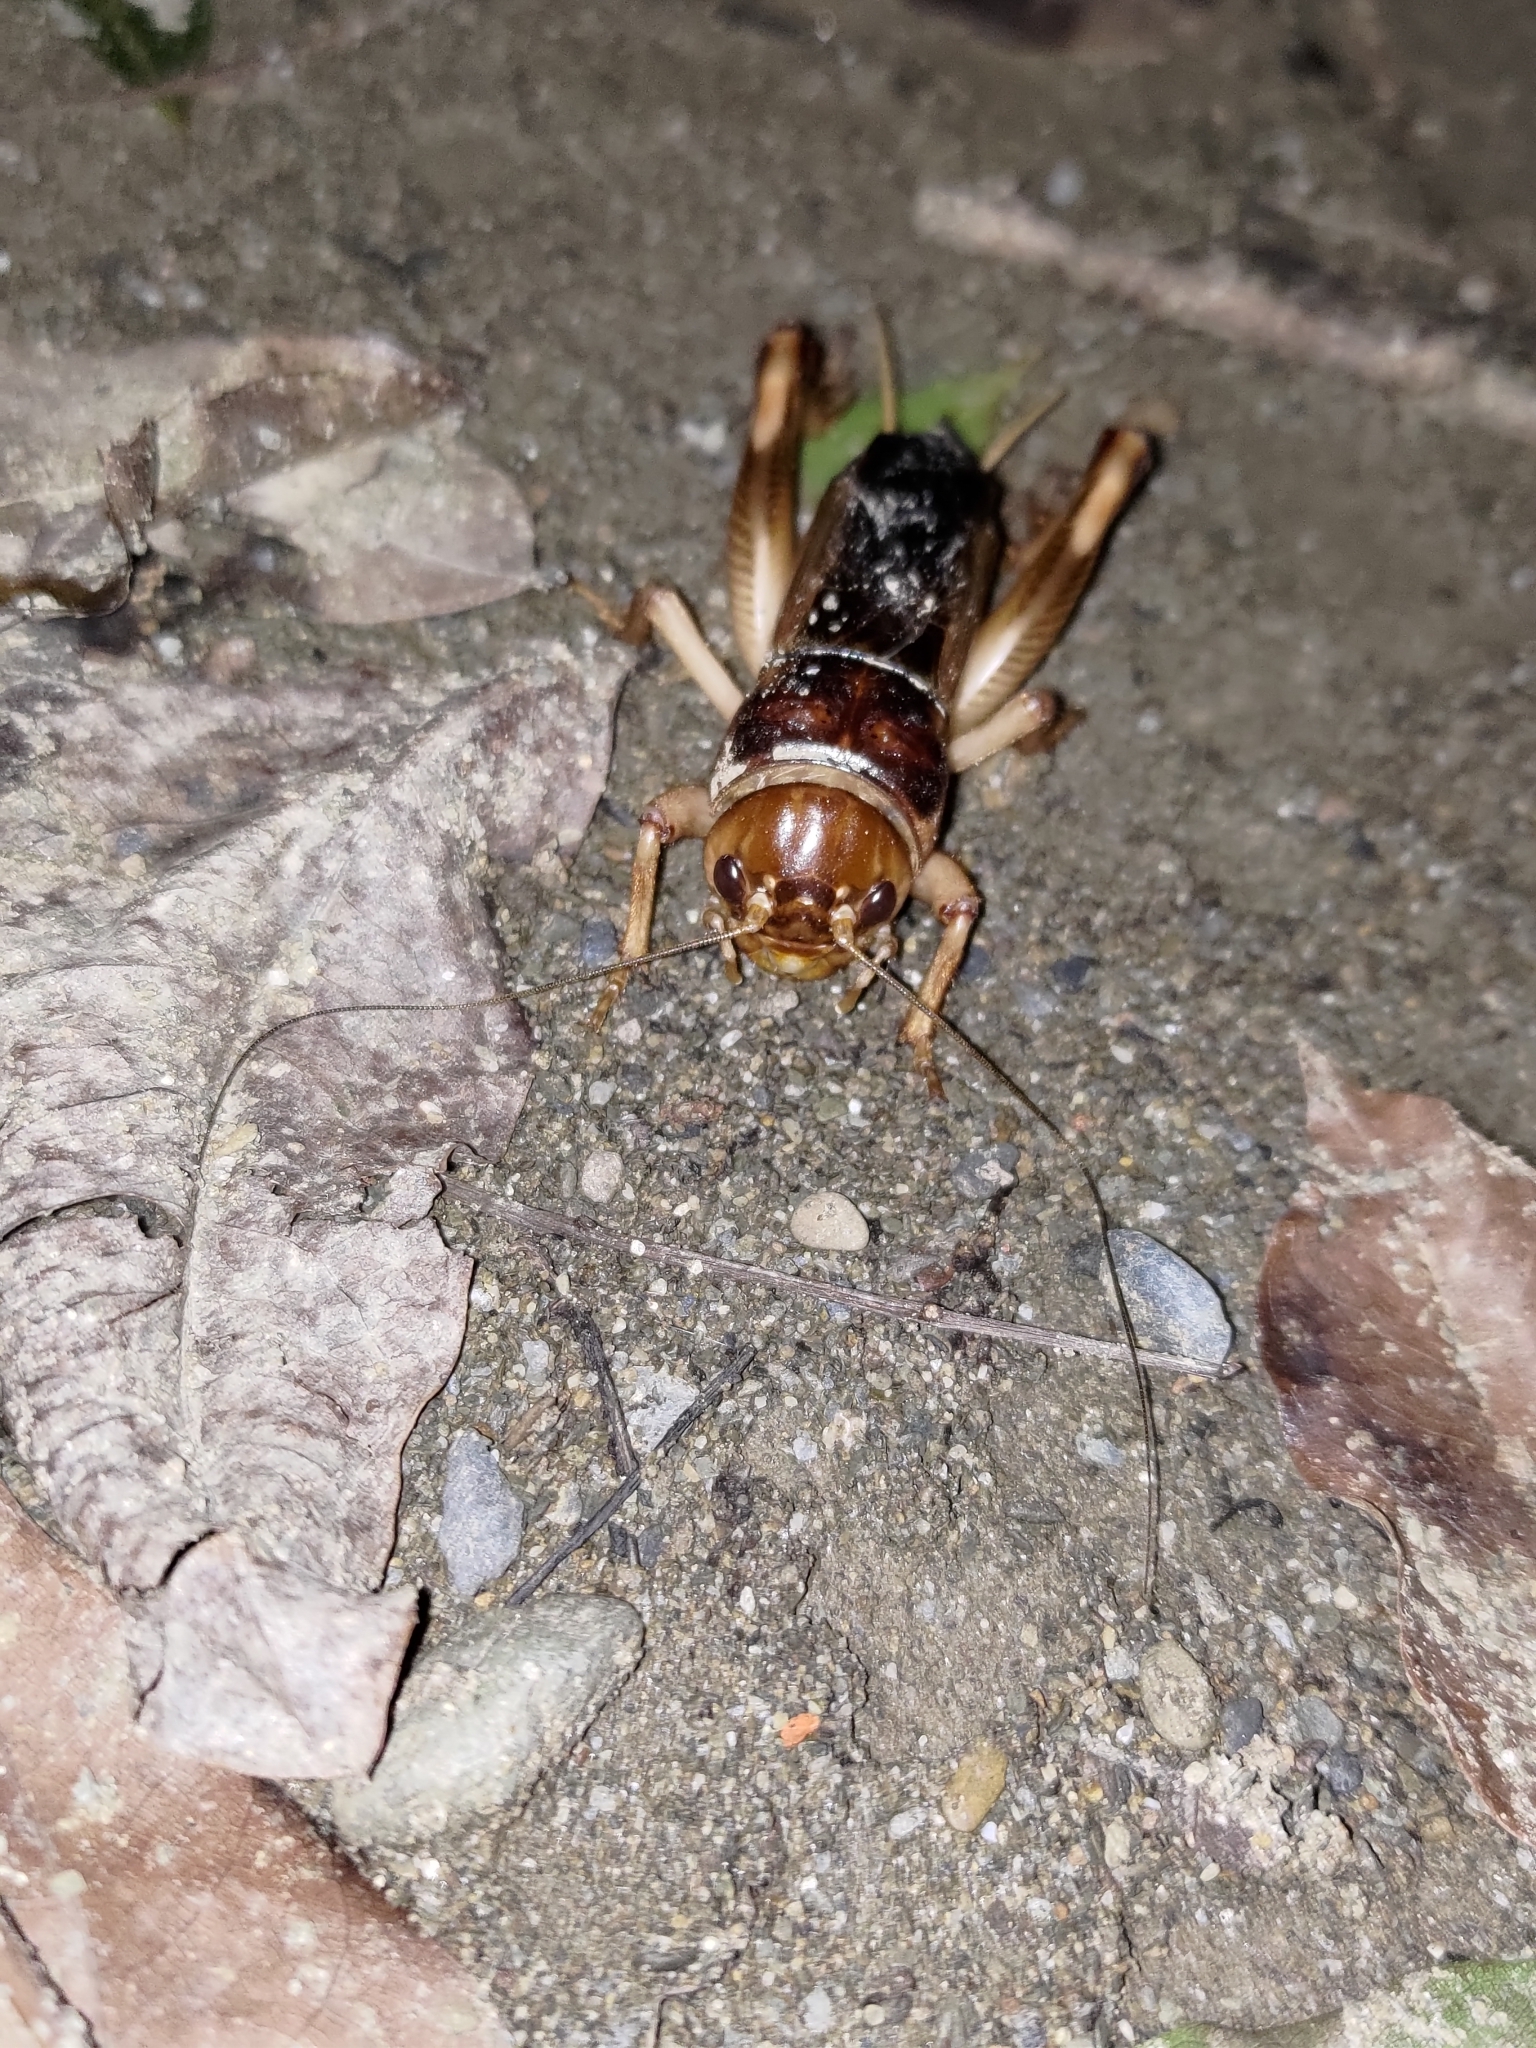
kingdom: Animalia
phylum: Arthropoda
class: Insecta
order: Orthoptera
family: Gryllidae
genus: Tarbinskiellus
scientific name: Tarbinskiellus portentosus
